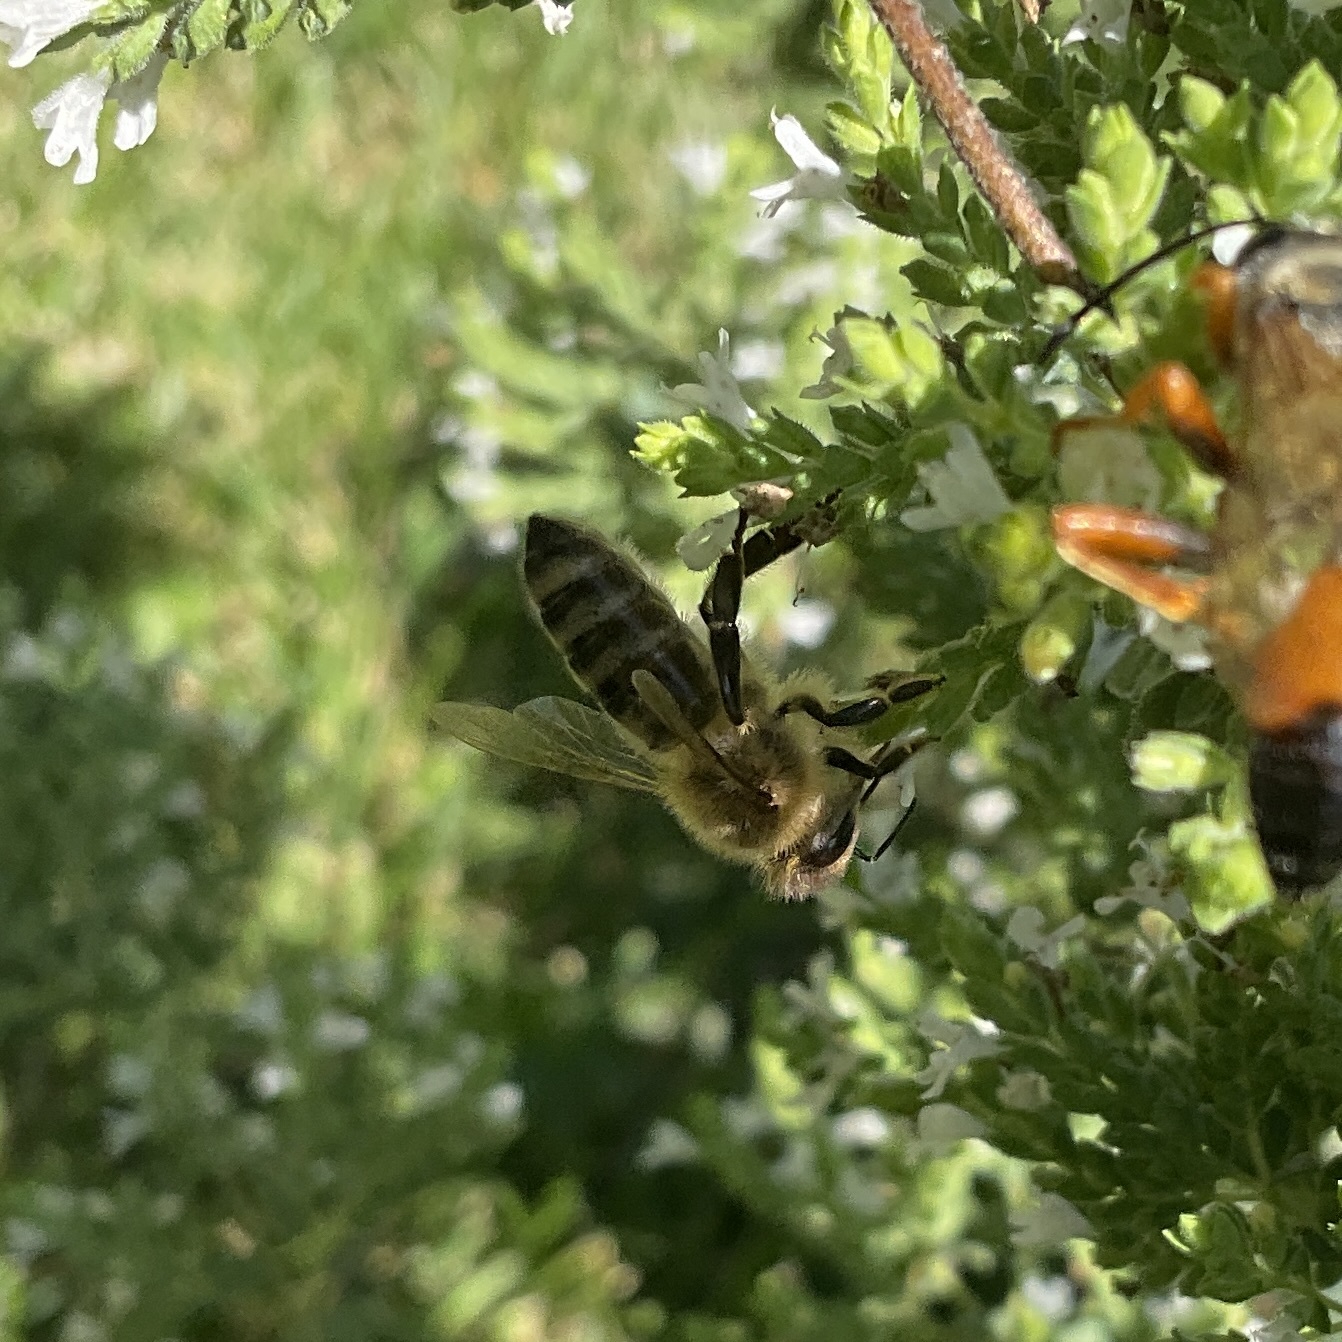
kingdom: Animalia
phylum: Arthropoda
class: Insecta
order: Hymenoptera
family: Apidae
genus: Apis
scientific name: Apis mellifera
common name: Honey bee
